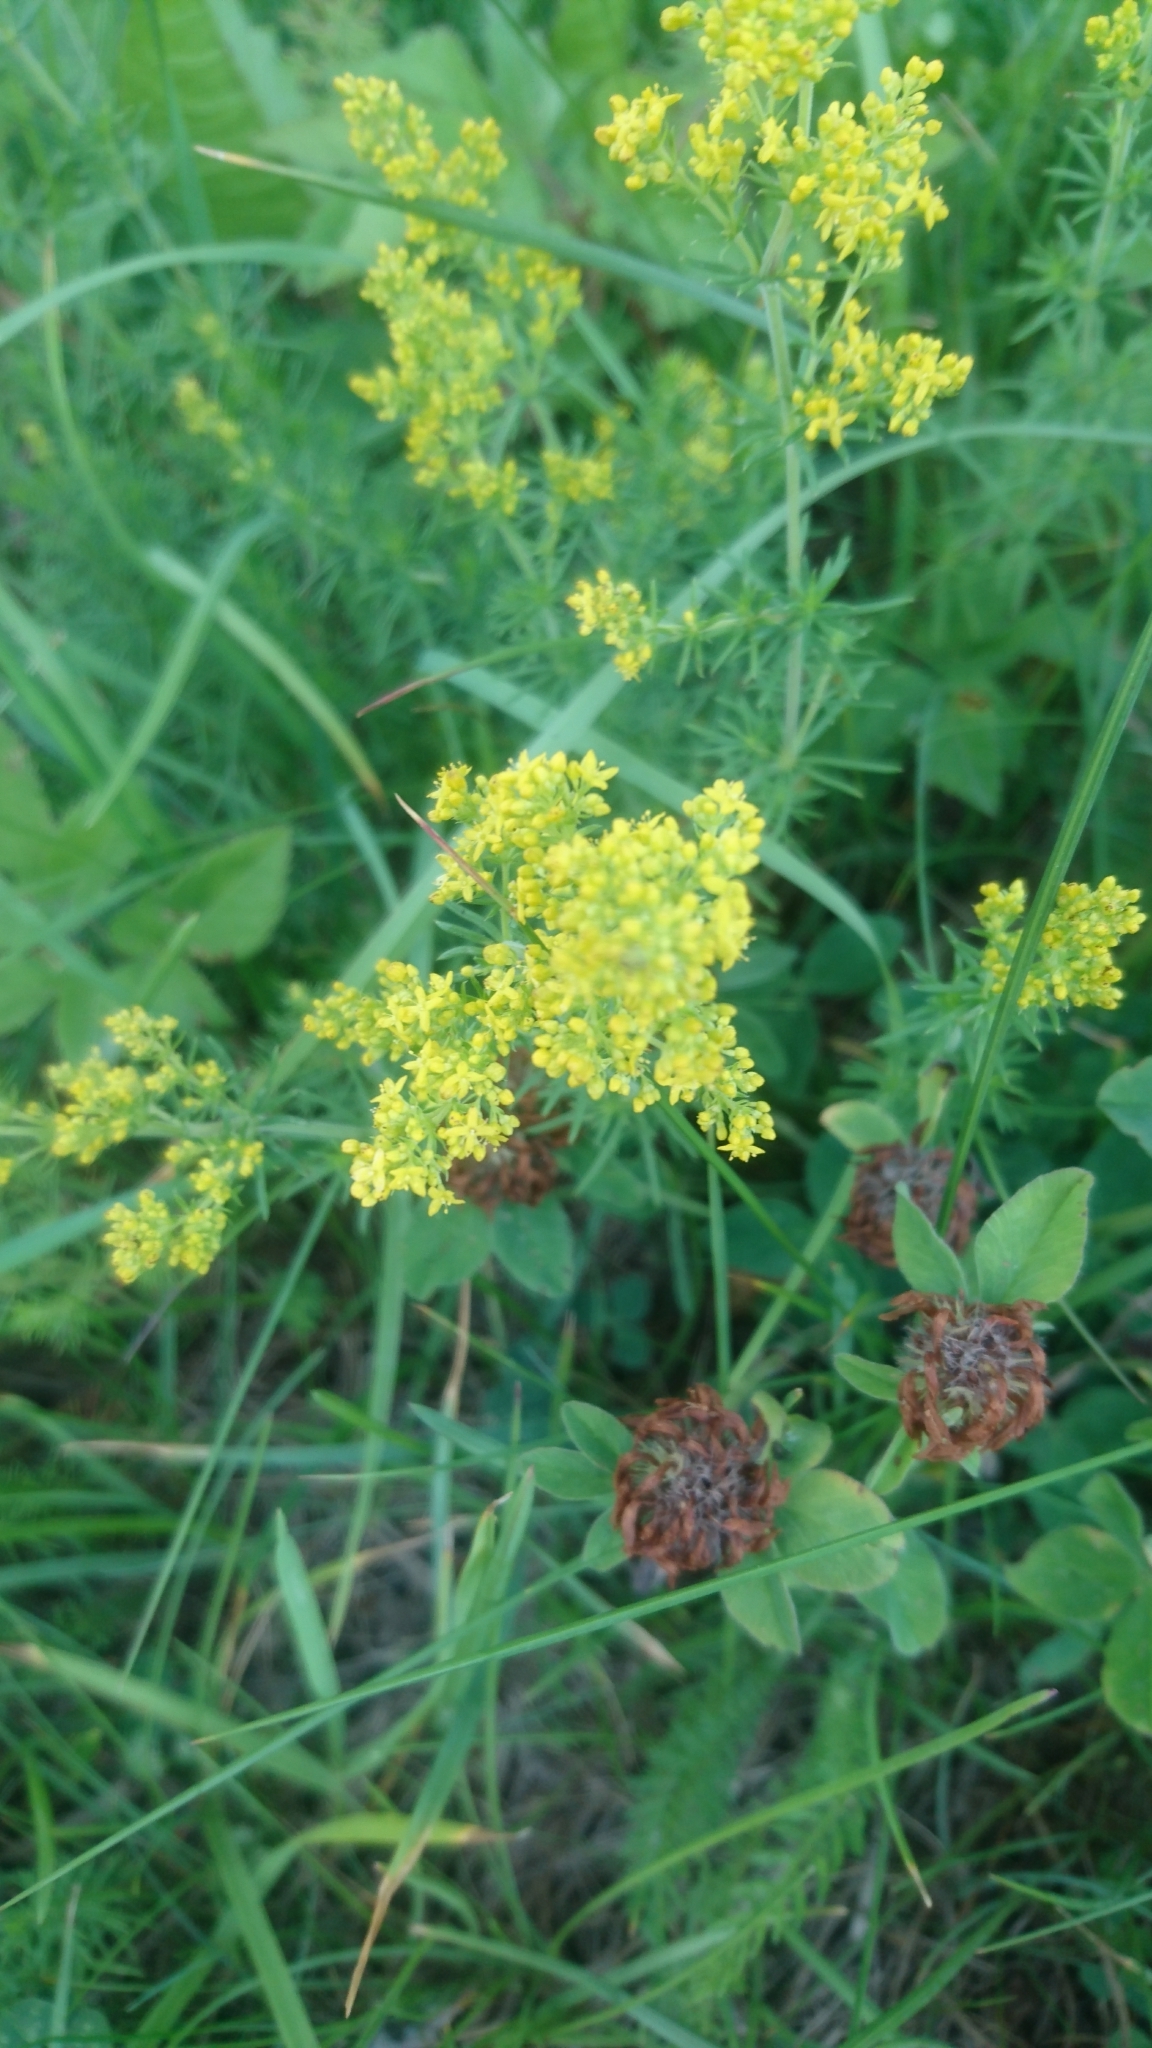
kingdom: Plantae
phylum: Tracheophyta
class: Magnoliopsida
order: Gentianales
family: Rubiaceae
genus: Galium
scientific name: Galium verum
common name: Lady's bedstraw
